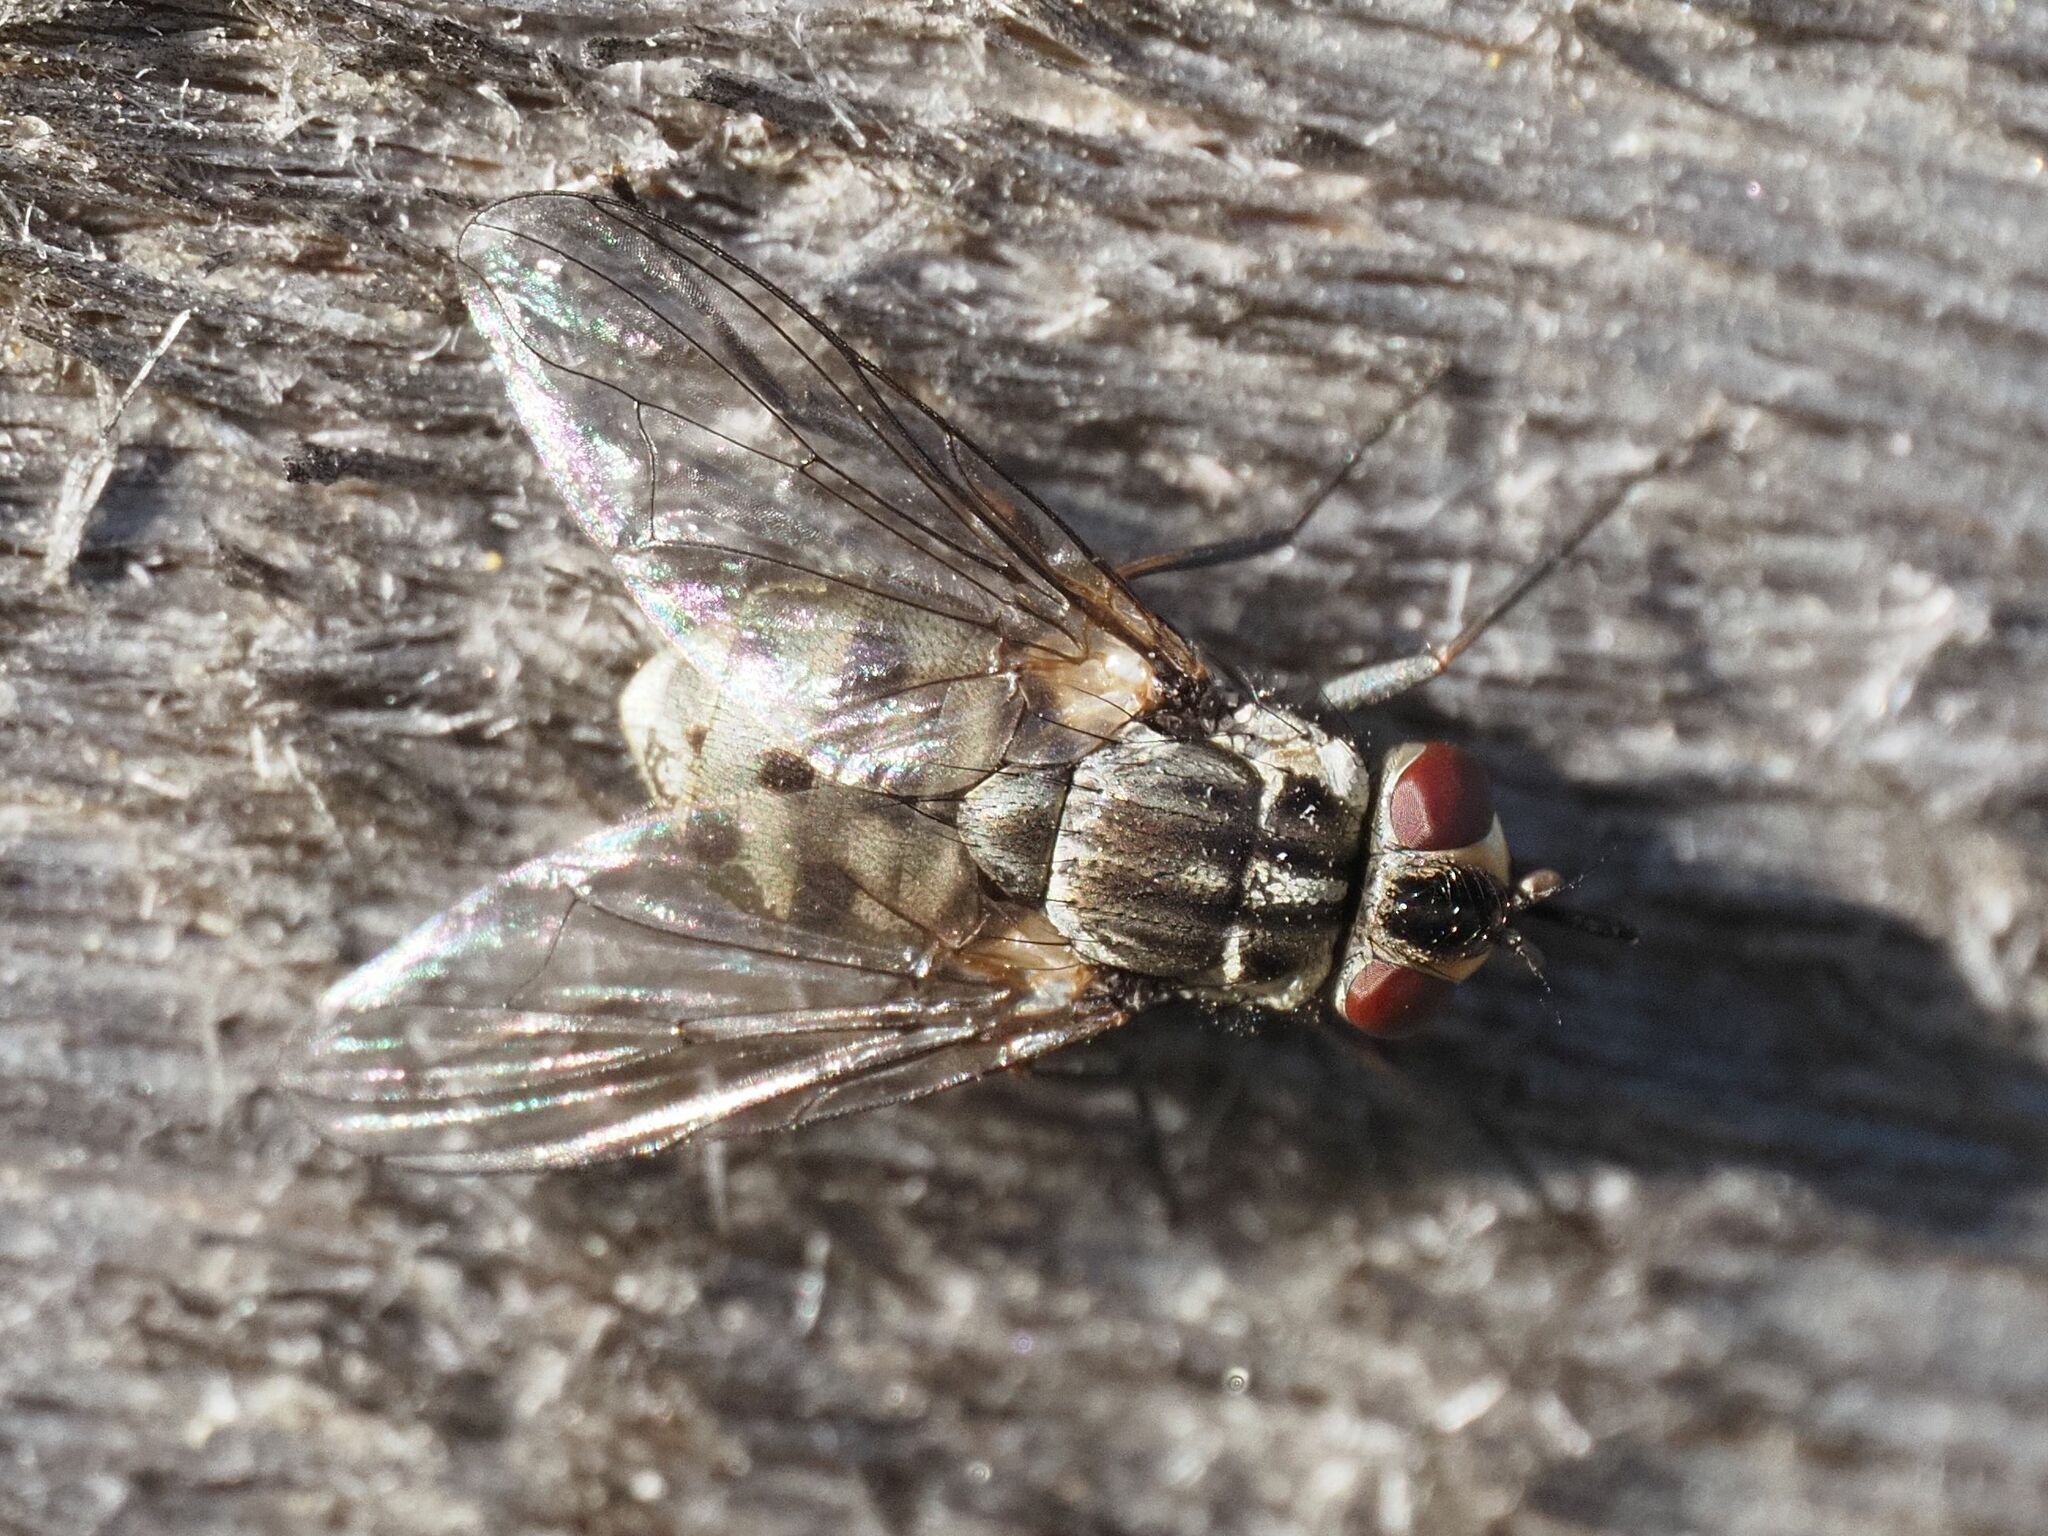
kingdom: Animalia
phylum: Arthropoda
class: Insecta
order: Diptera
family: Muscidae
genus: Stomoxys
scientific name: Stomoxys calcitrans
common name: Stable fly
